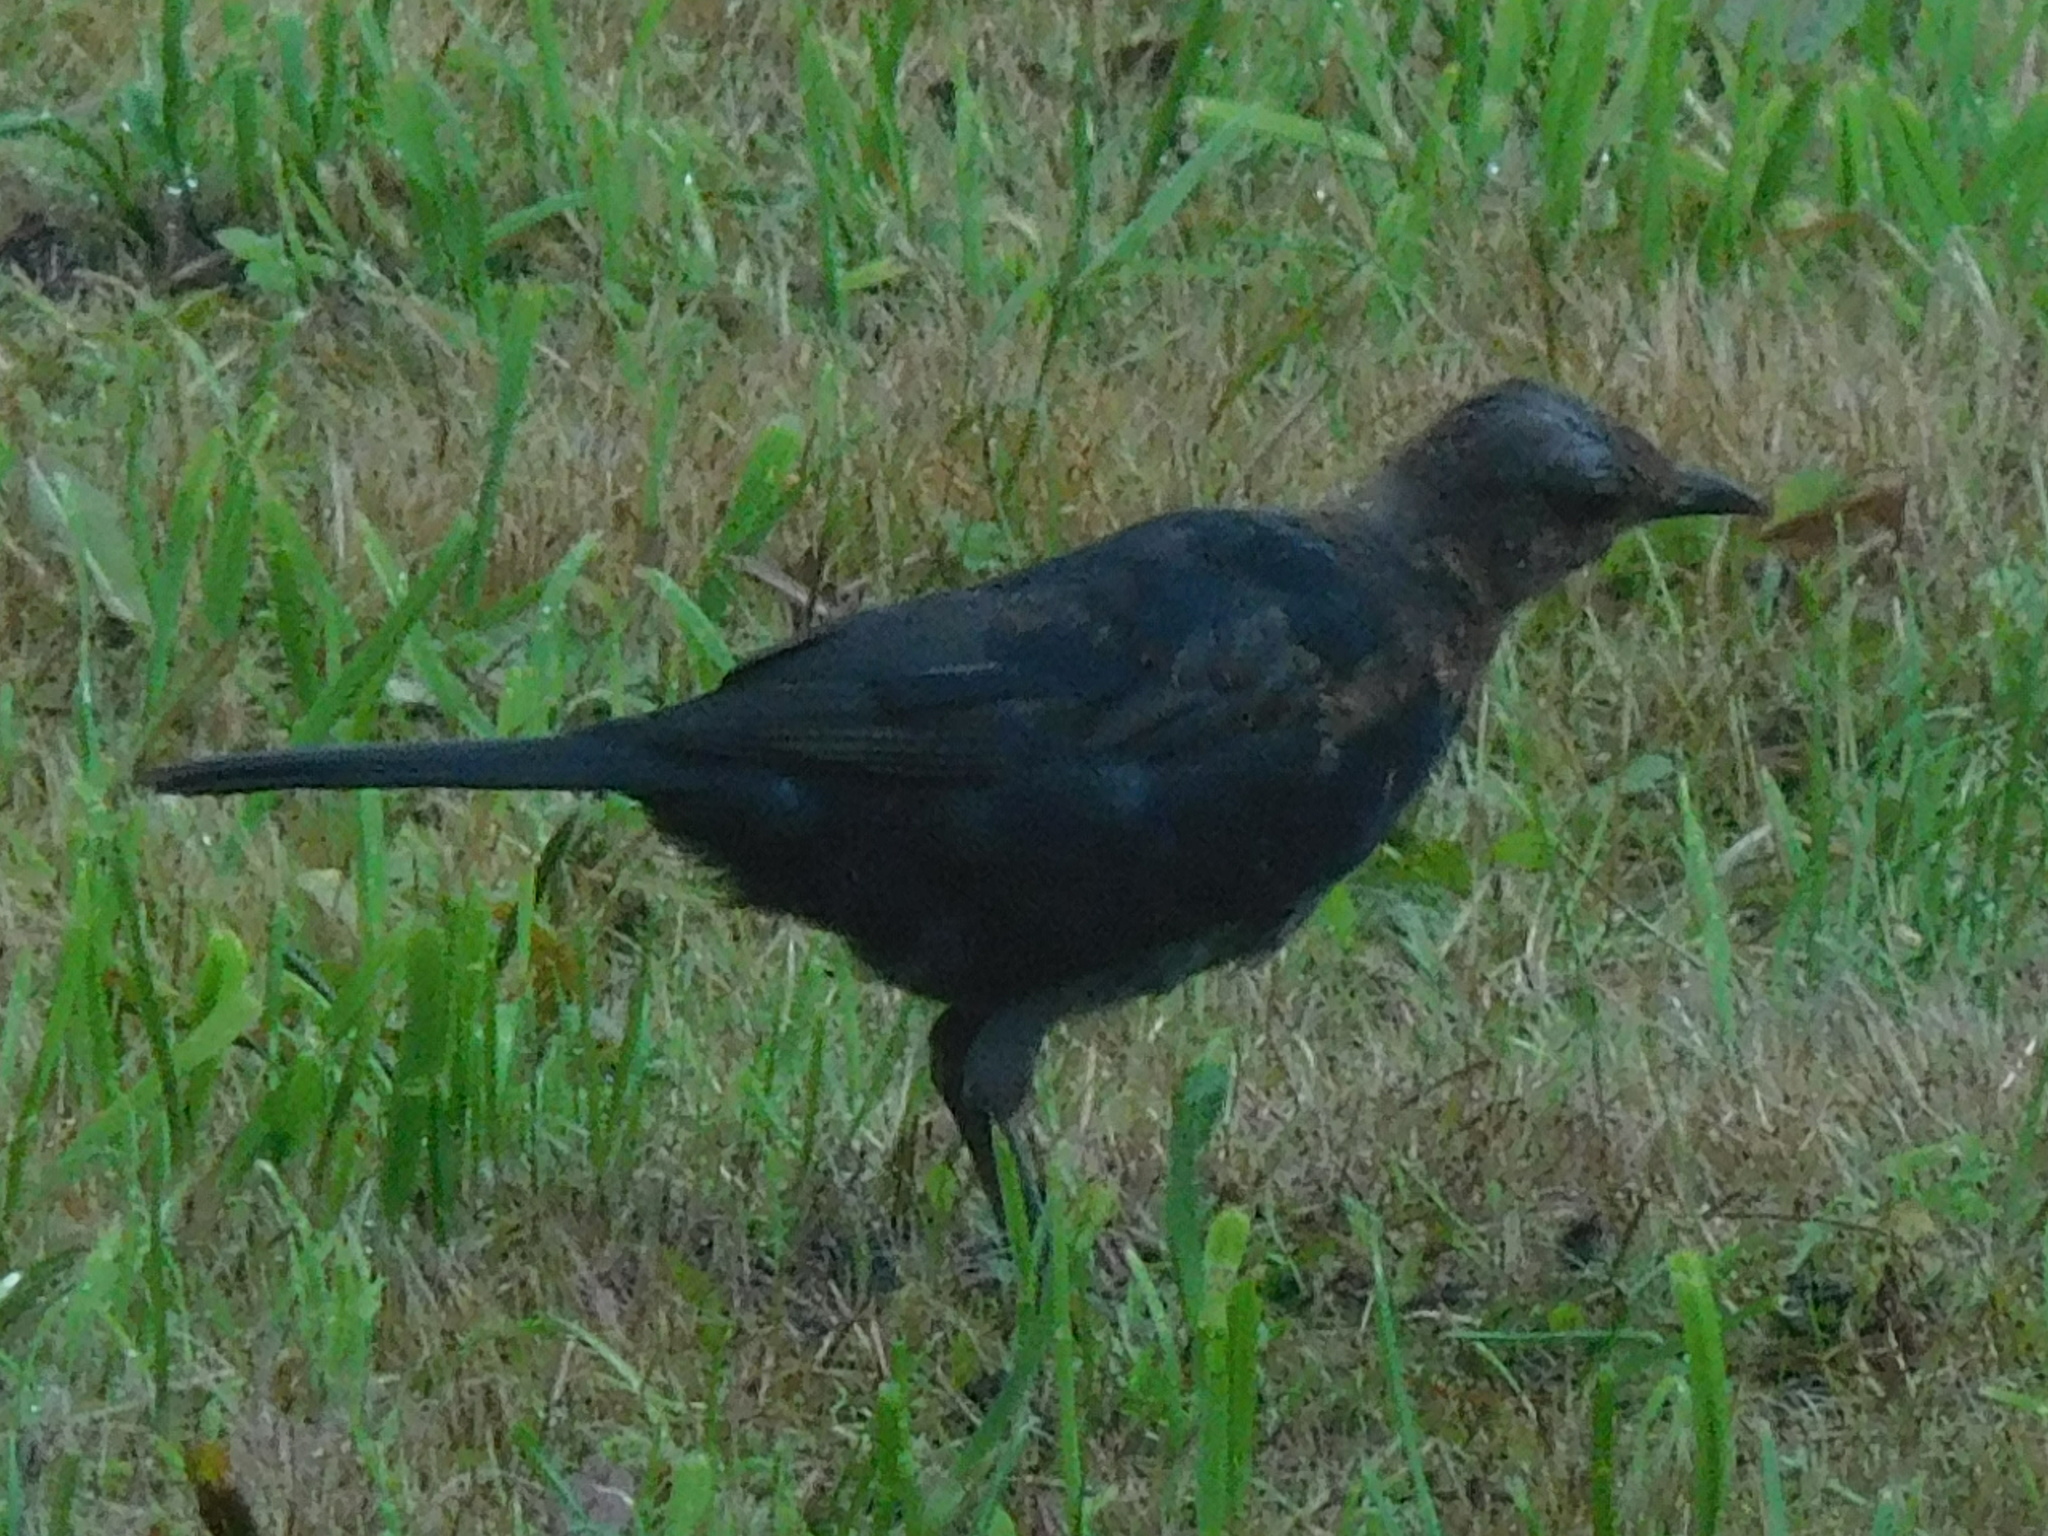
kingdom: Animalia
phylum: Chordata
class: Aves
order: Passeriformes
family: Turdidae
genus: Turdus
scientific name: Turdus merula
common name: Common blackbird
